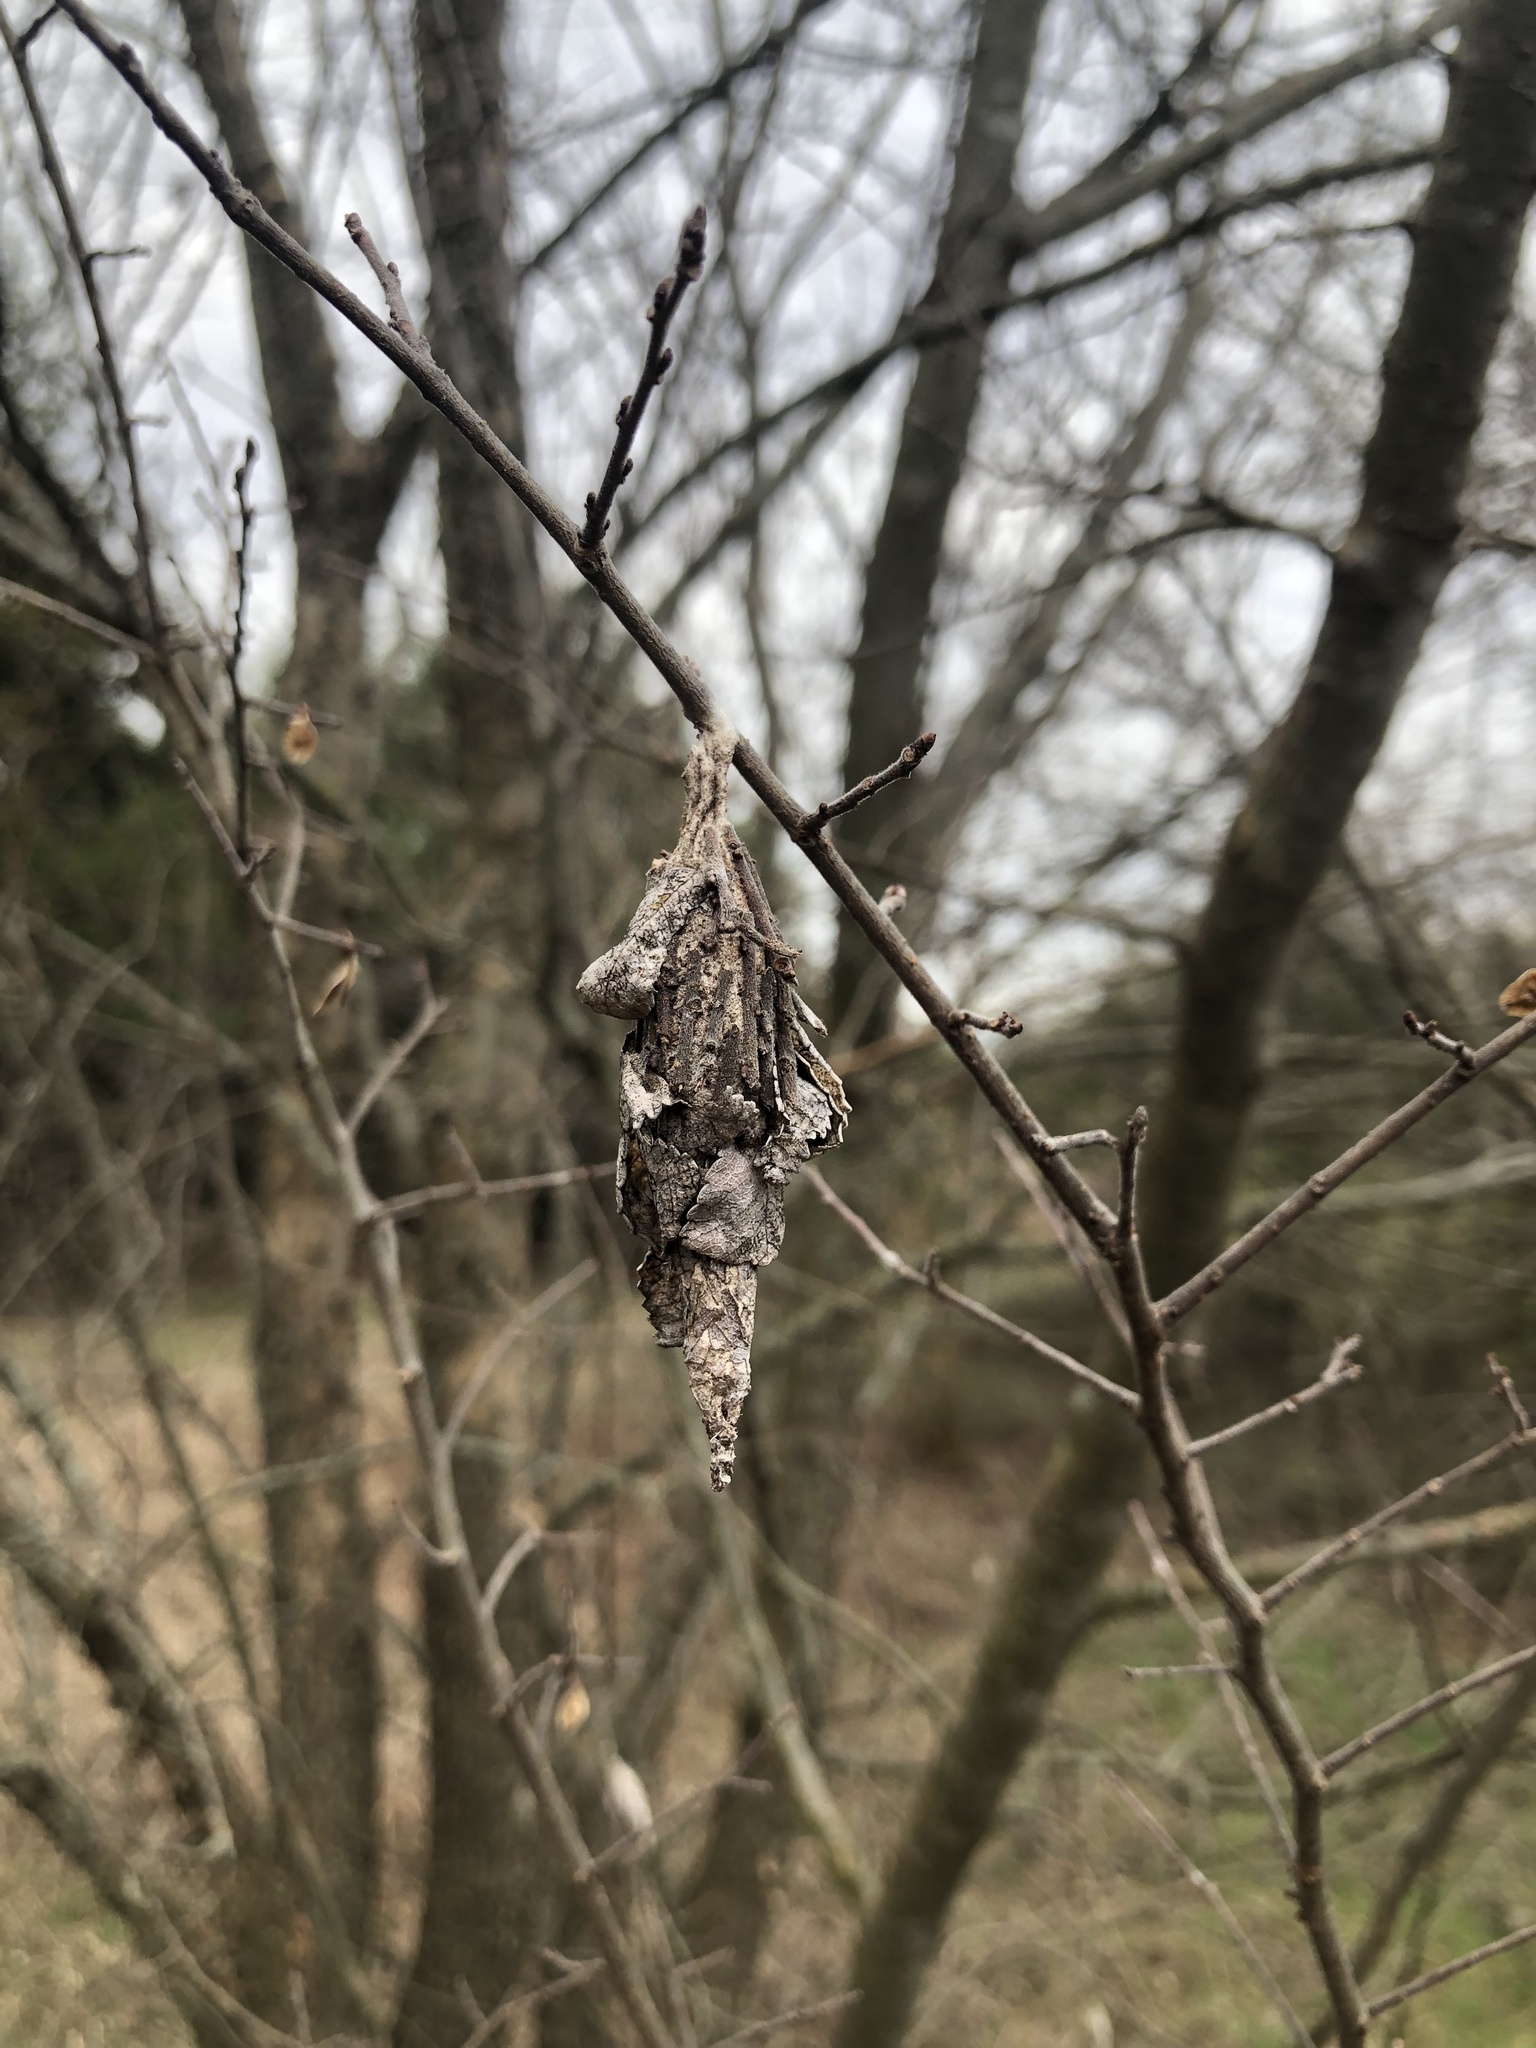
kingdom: Animalia
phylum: Arthropoda
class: Insecta
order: Lepidoptera
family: Psychidae
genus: Thyridopteryx
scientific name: Thyridopteryx ephemeraeformis
